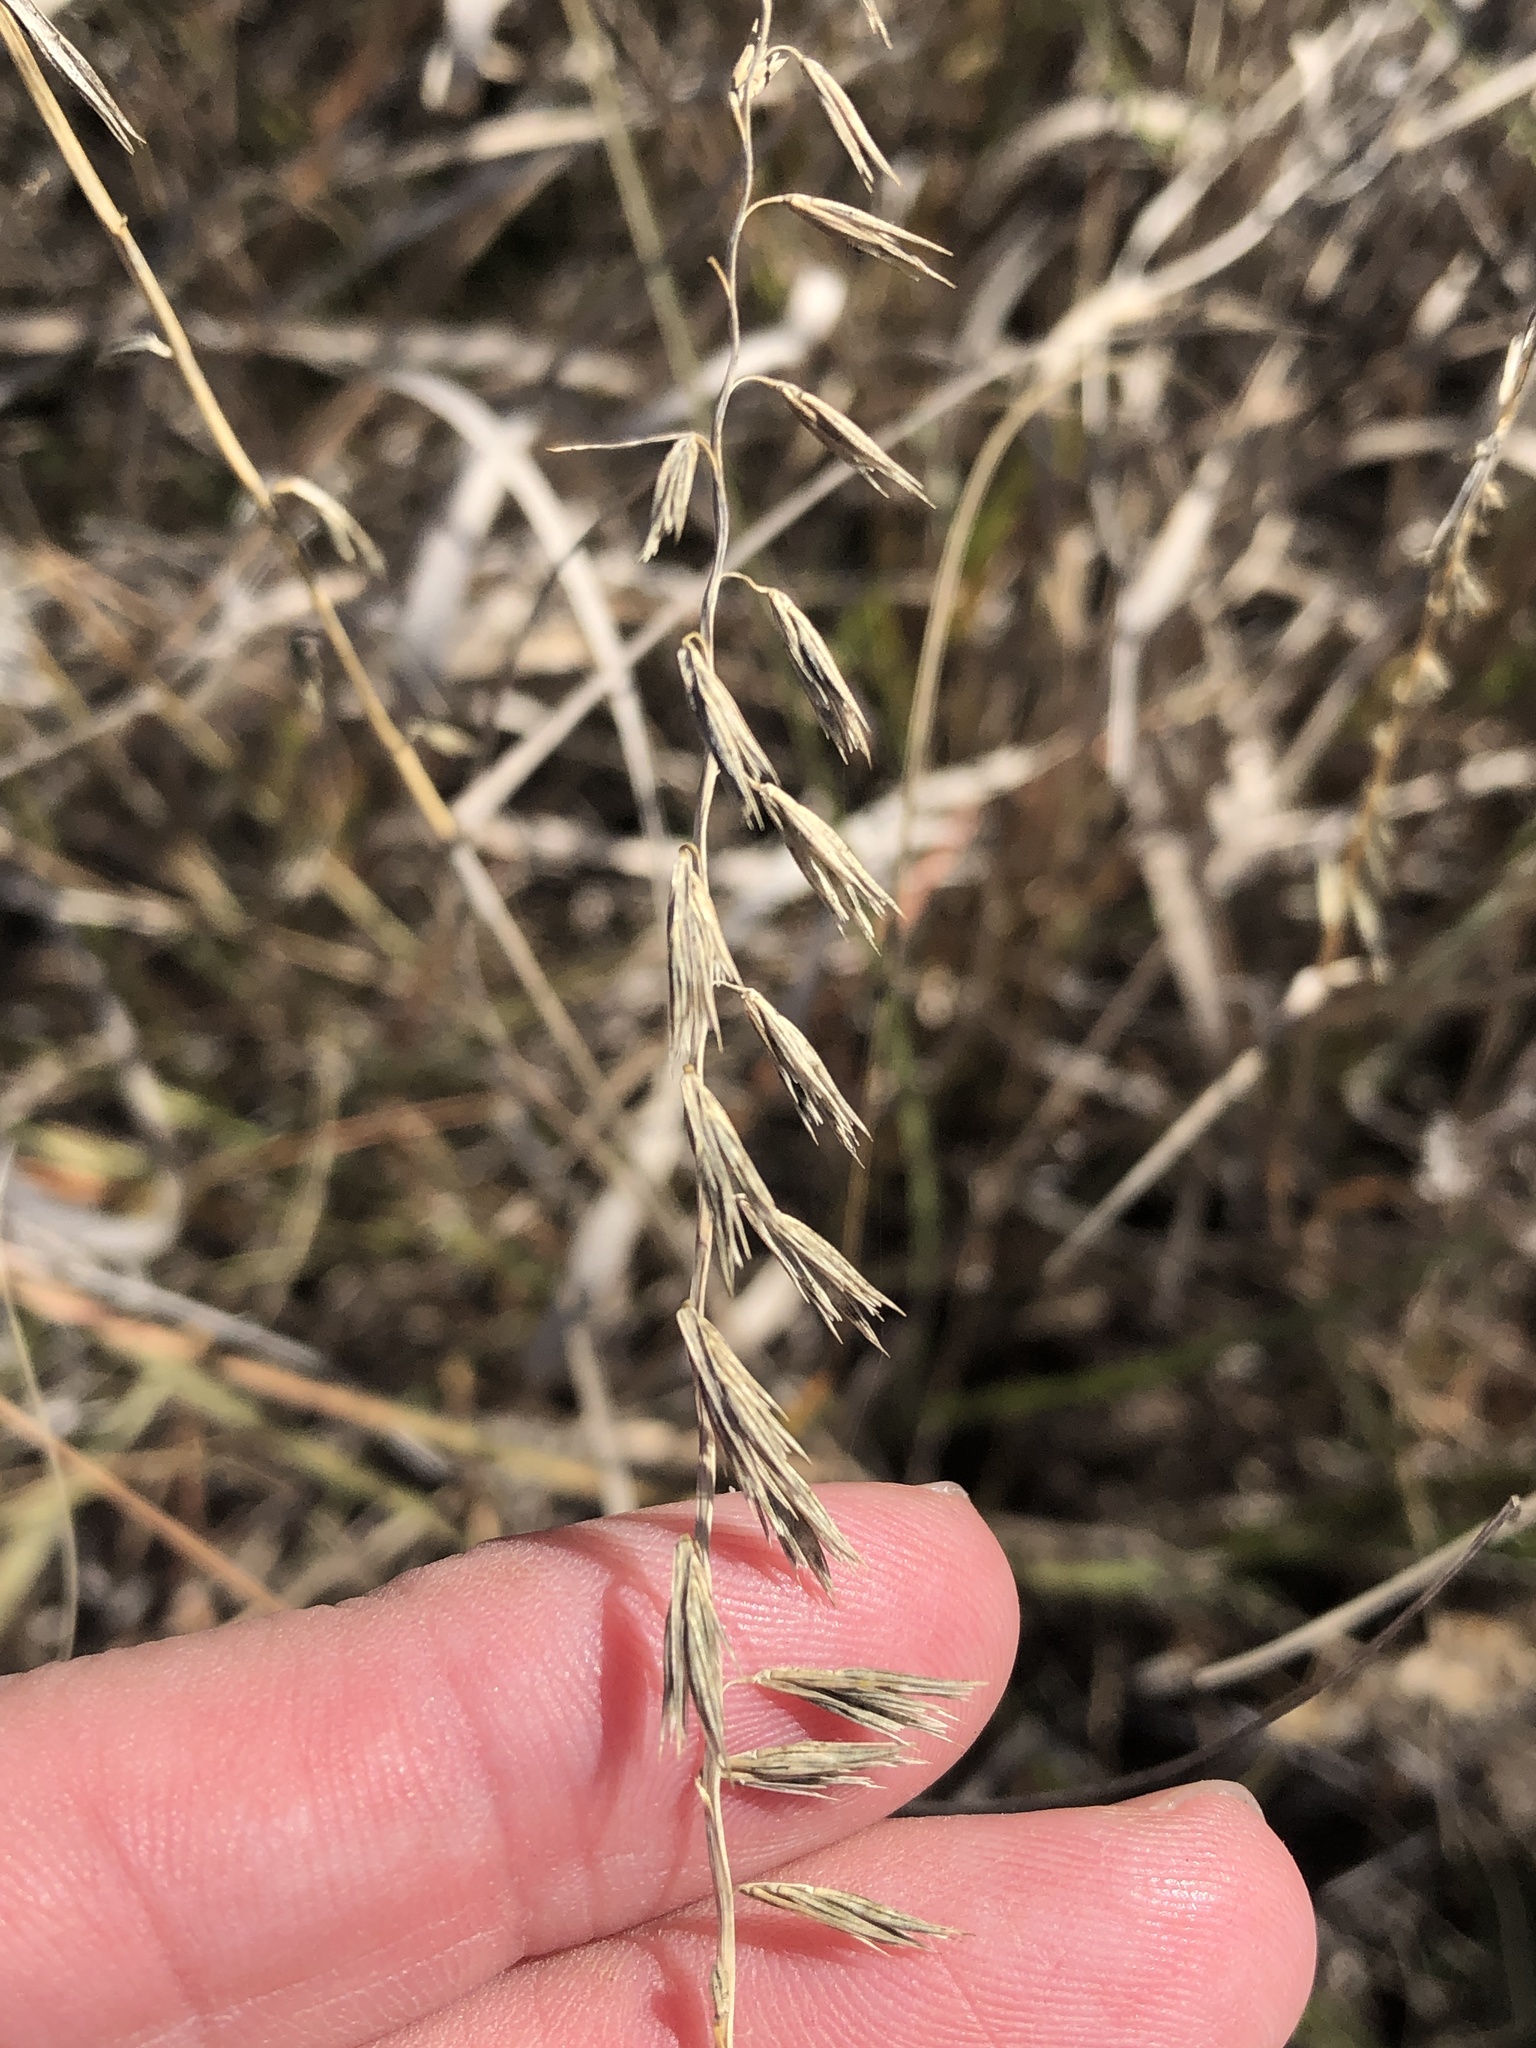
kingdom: Plantae
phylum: Tracheophyta
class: Liliopsida
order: Poales
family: Poaceae
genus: Bouteloua
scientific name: Bouteloua curtipendula
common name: Side-oats grama
